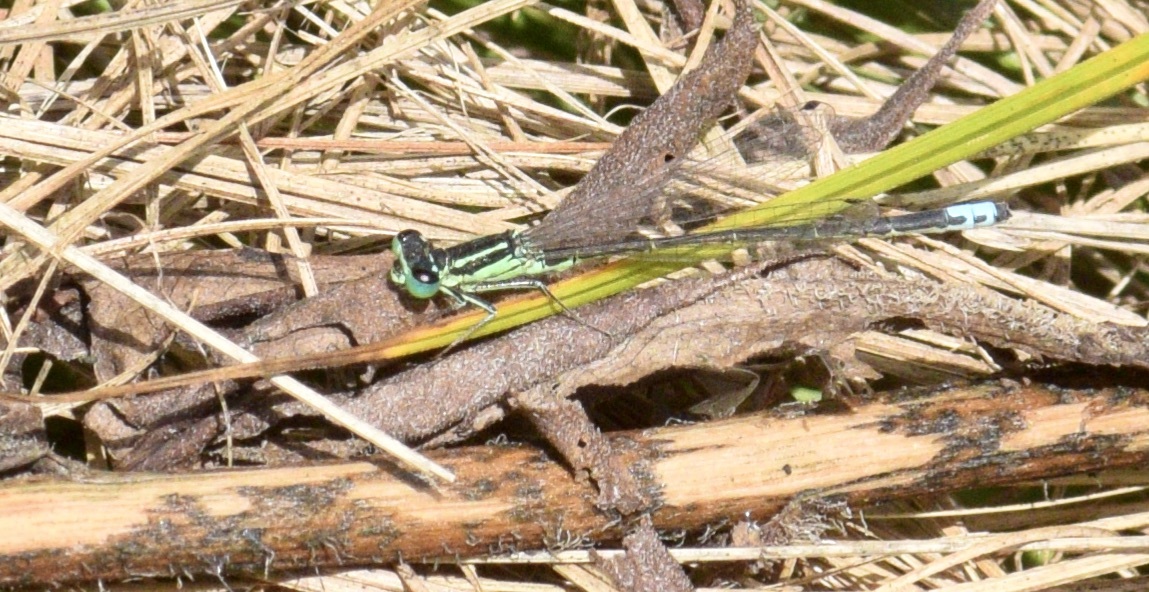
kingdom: Animalia
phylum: Arthropoda
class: Insecta
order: Odonata
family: Coenagrionidae
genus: Ischnura
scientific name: Ischnura verticalis
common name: Eastern forktail
